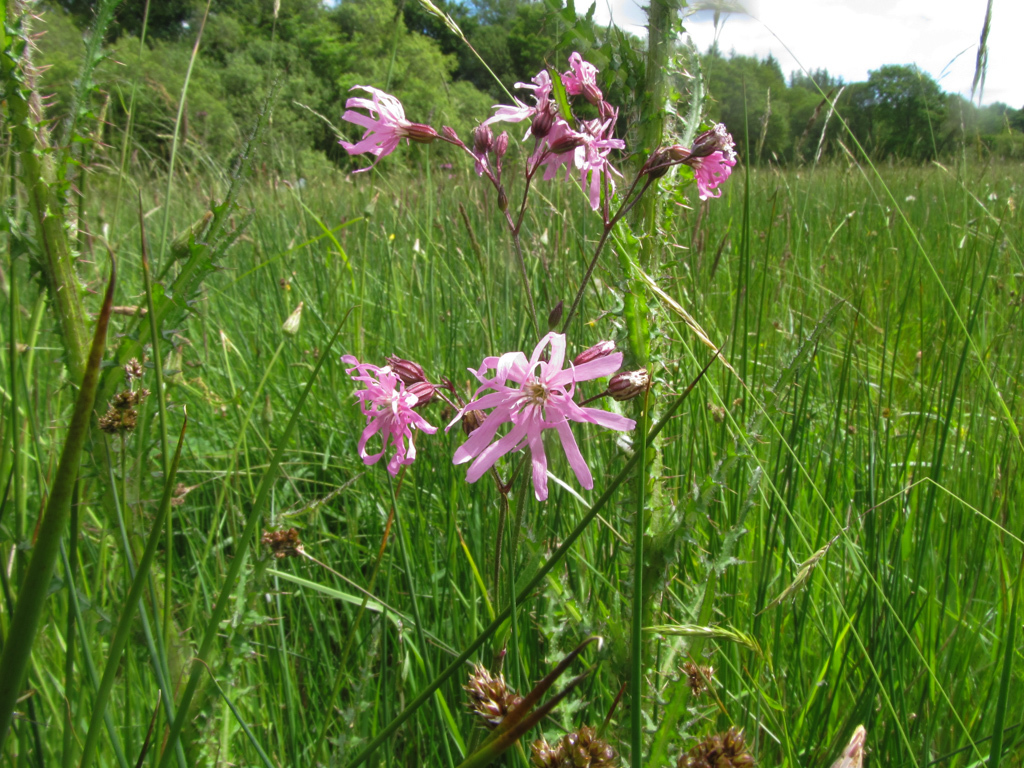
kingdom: Plantae
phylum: Tracheophyta
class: Magnoliopsida
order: Caryophyllales
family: Caryophyllaceae
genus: Silene
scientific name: Silene flos-cuculi
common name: Ragged-robin
